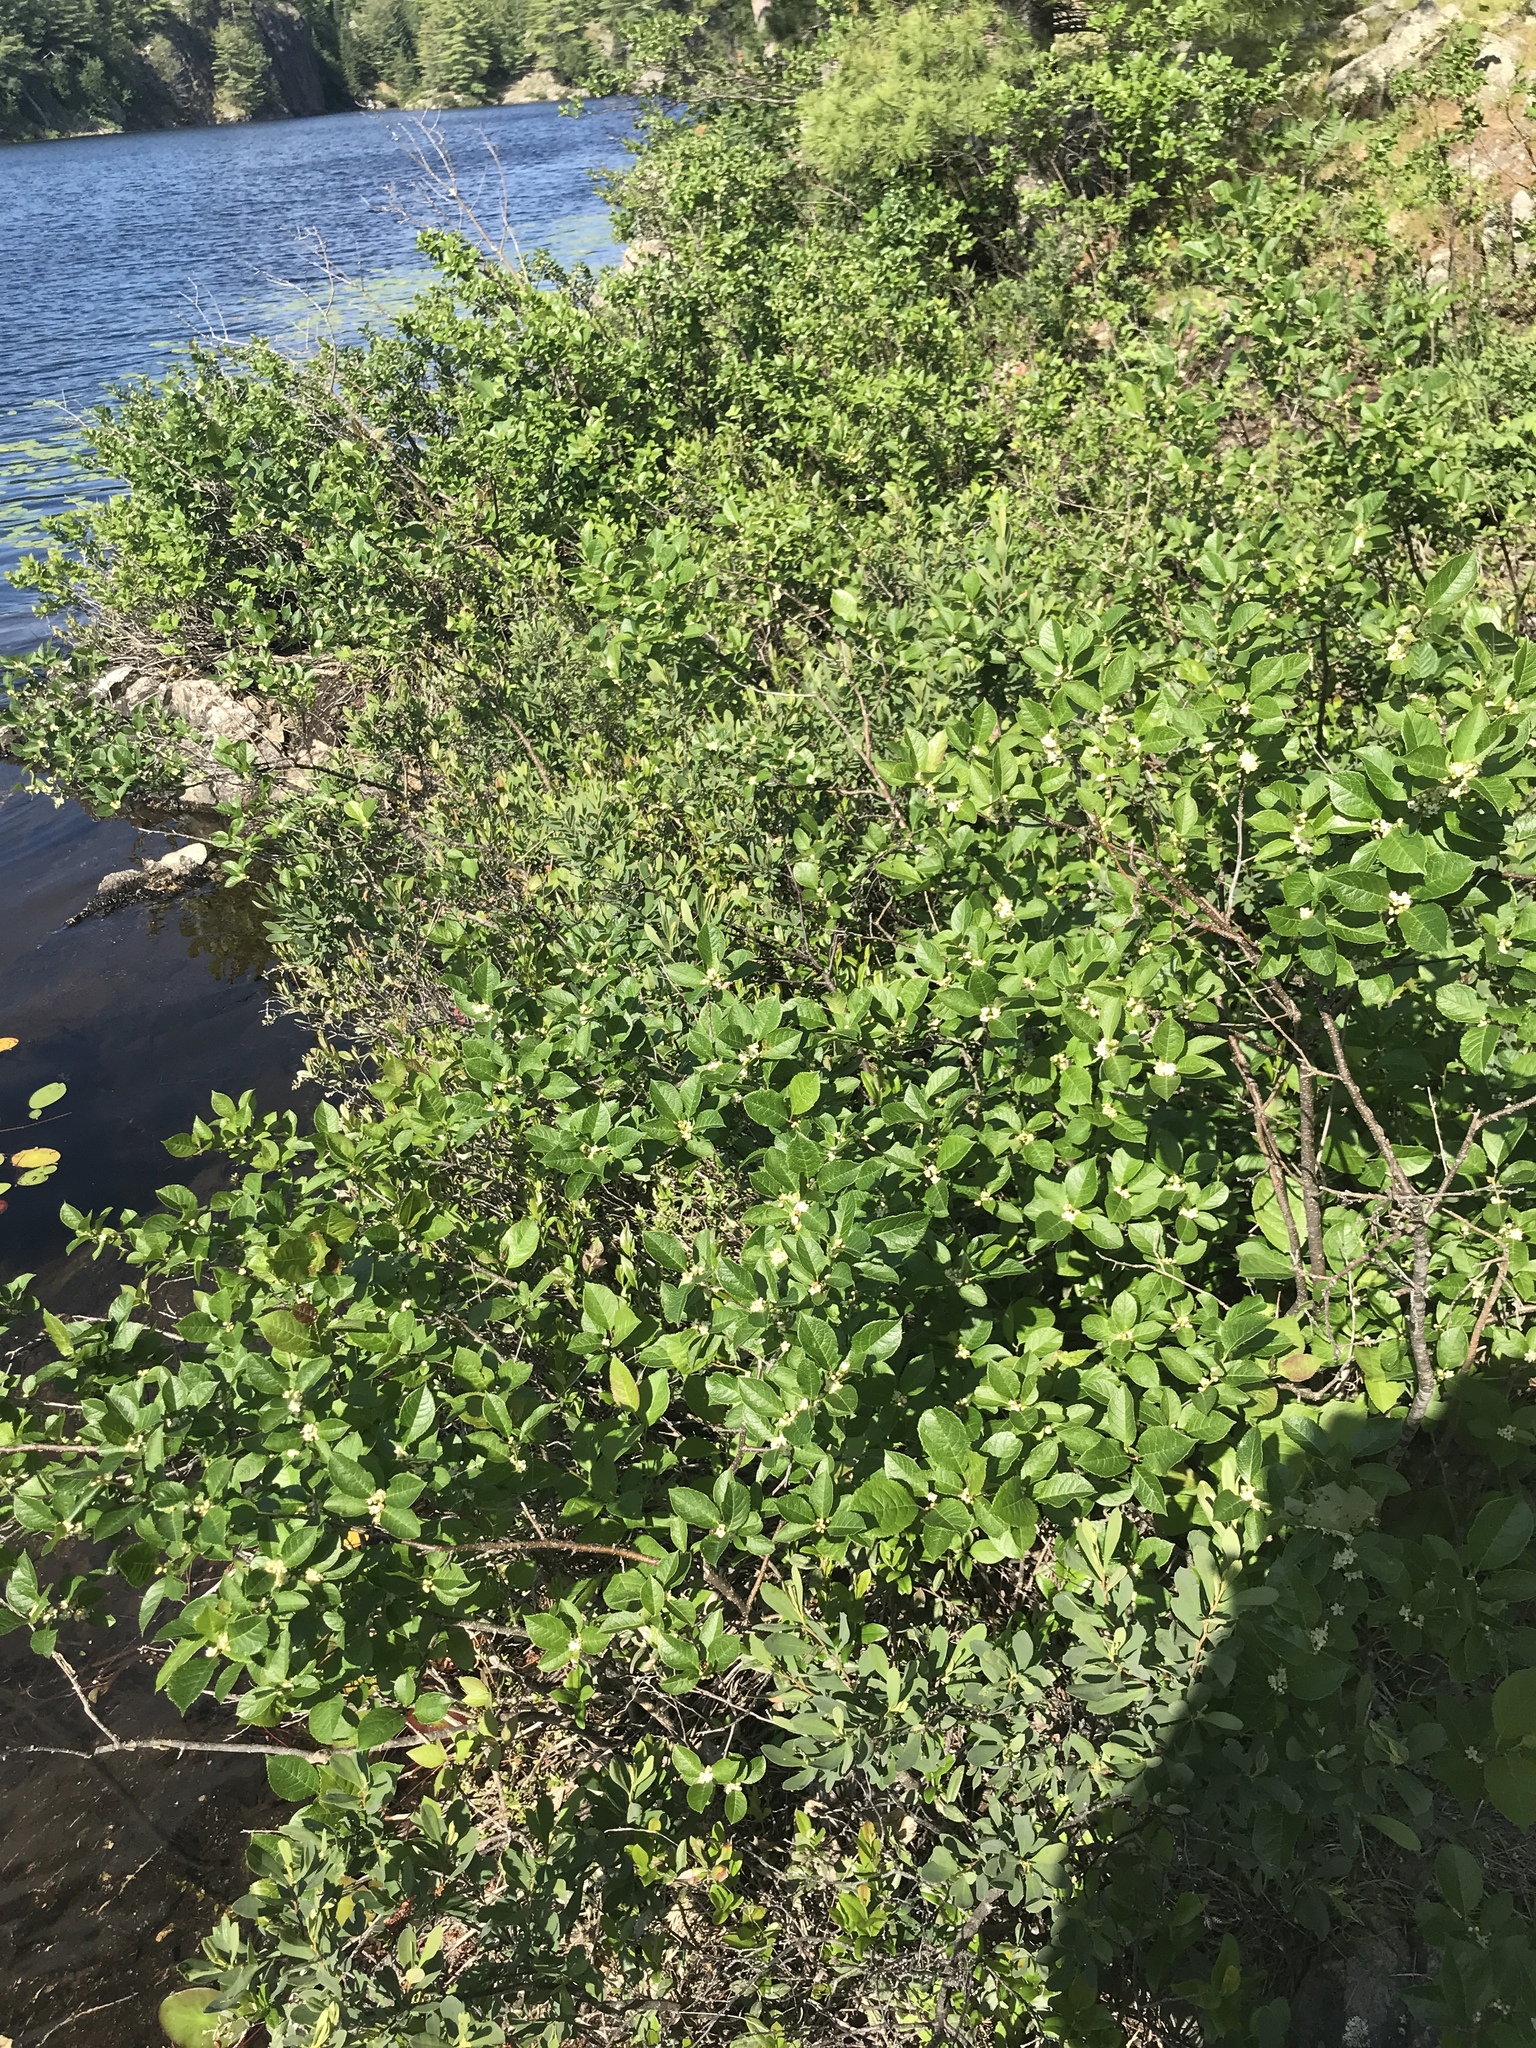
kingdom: Plantae
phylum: Tracheophyta
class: Magnoliopsida
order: Aquifoliales
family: Aquifoliaceae
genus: Ilex
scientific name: Ilex verticillata
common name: Virginia winterberry
